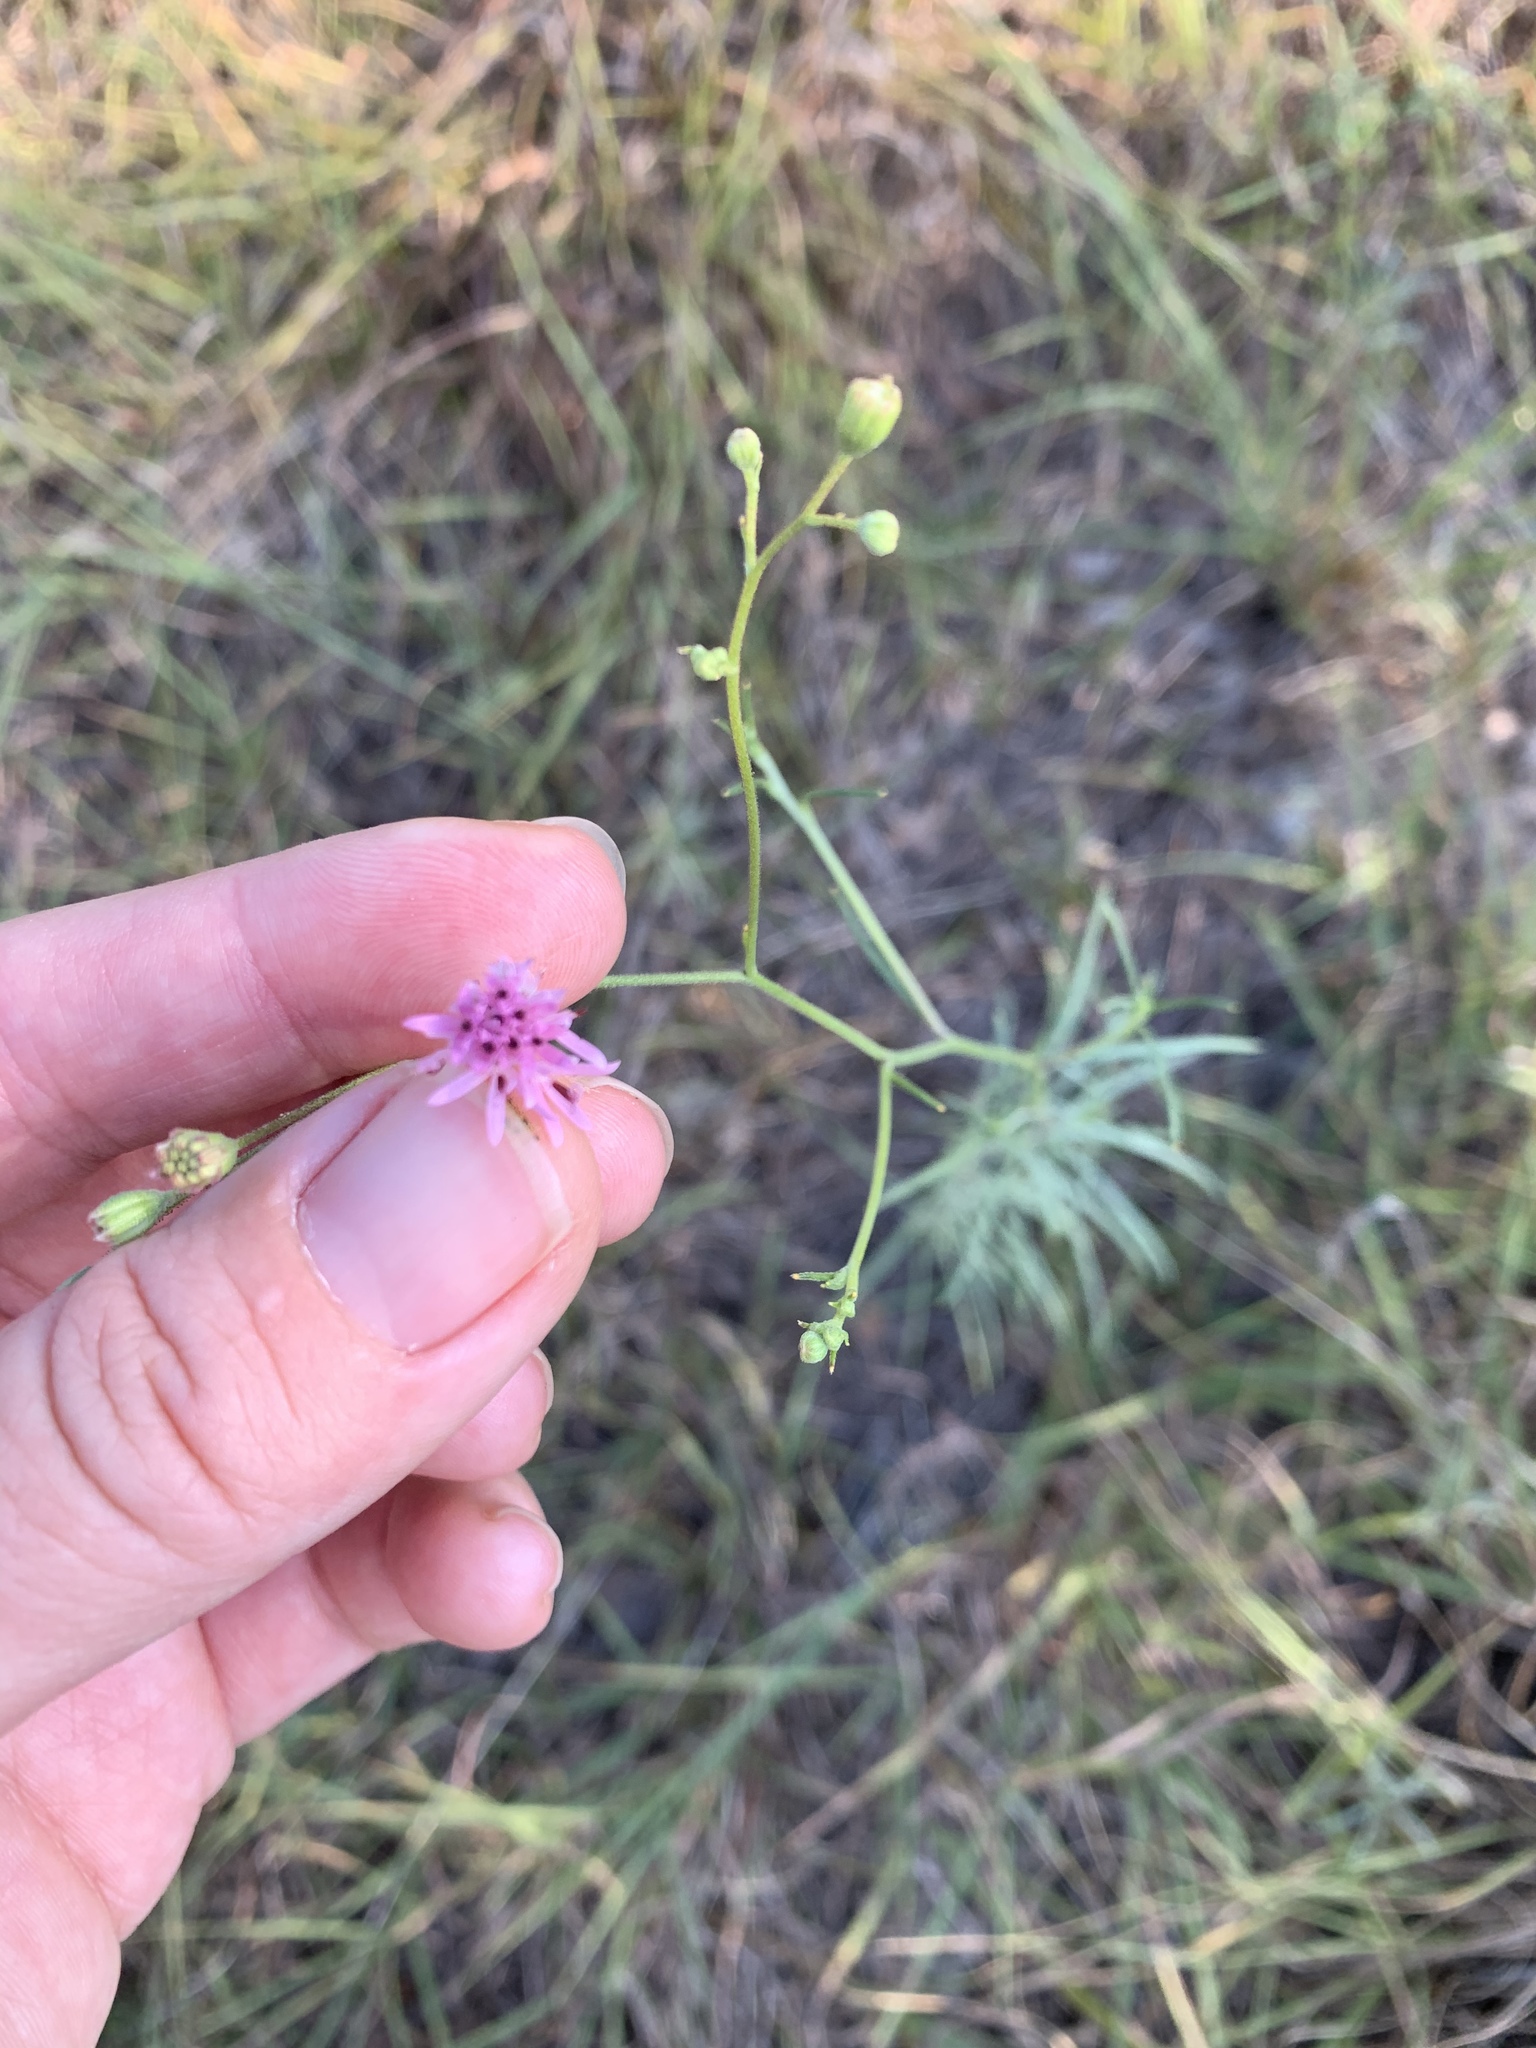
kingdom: Plantae
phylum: Tracheophyta
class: Magnoliopsida
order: Asterales
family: Asteraceae
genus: Palafoxia
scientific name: Palafoxia callosa
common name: Small palafox
